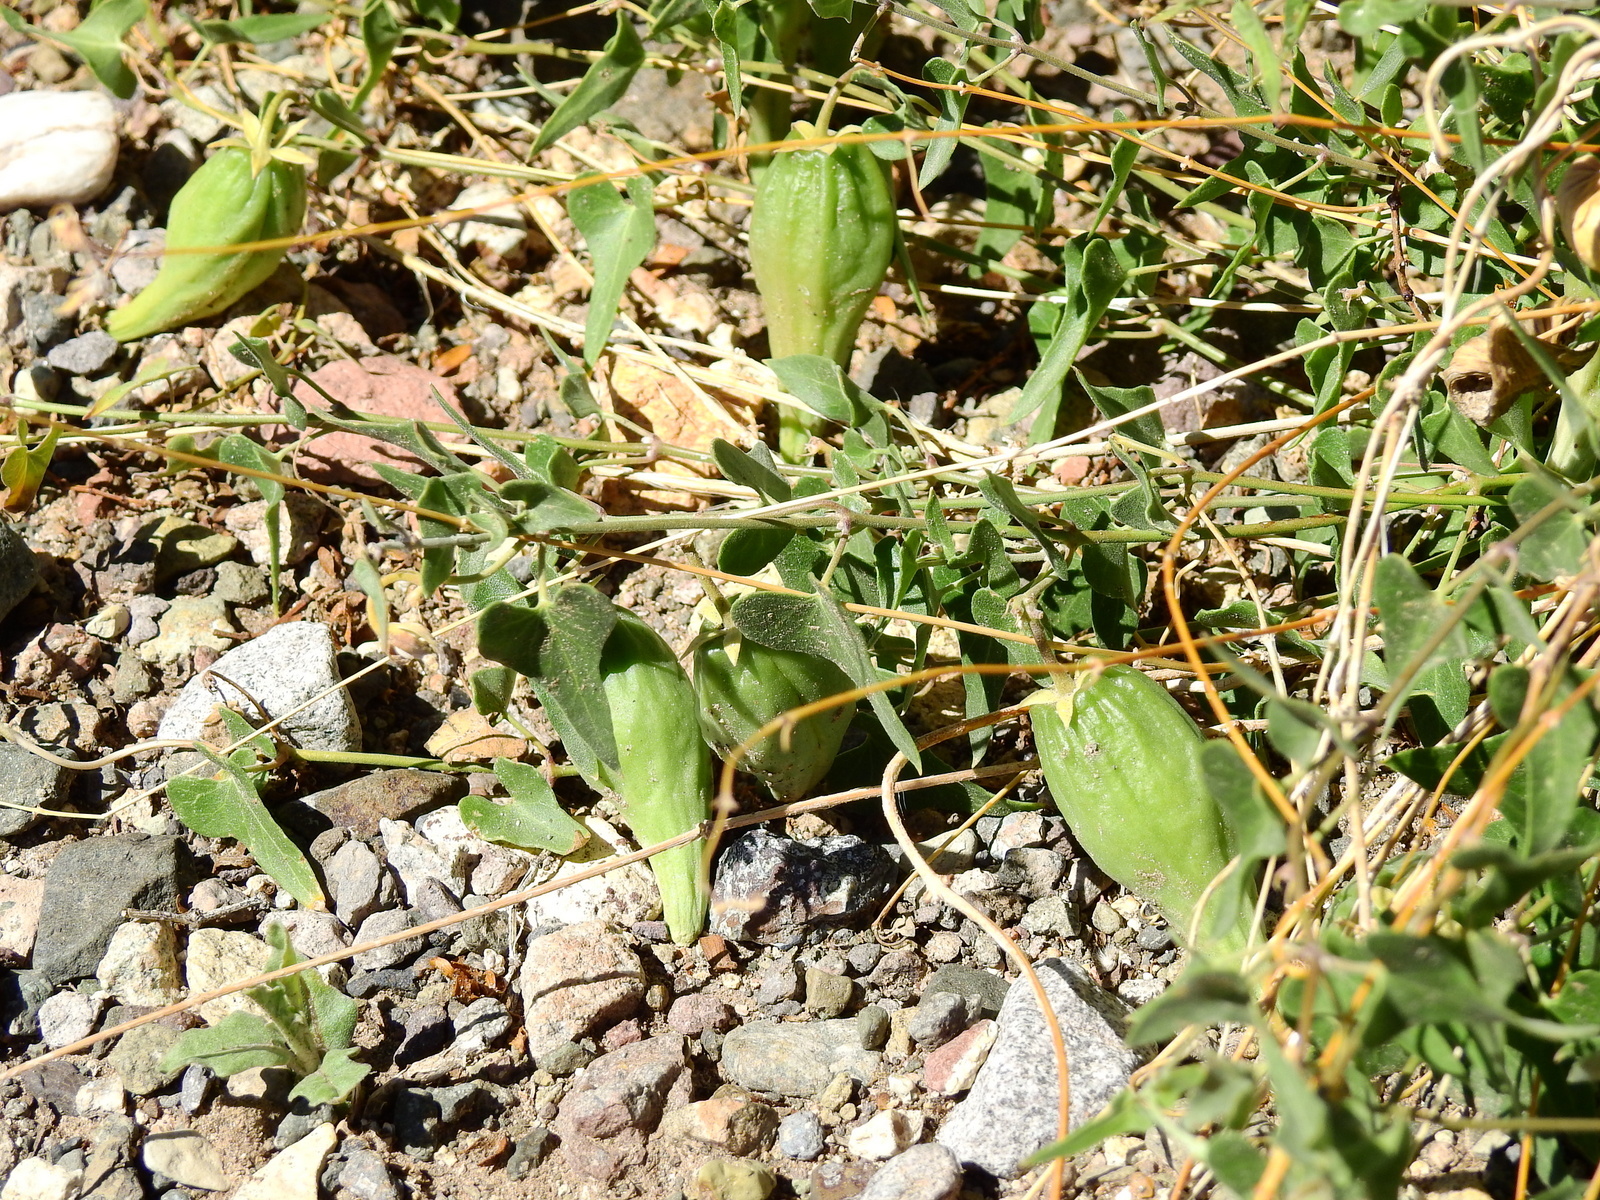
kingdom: Plantae
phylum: Tracheophyta
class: Magnoliopsida
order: Gentianales
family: Apocynaceae
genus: Philibertia
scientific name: Philibertia gilliesii
